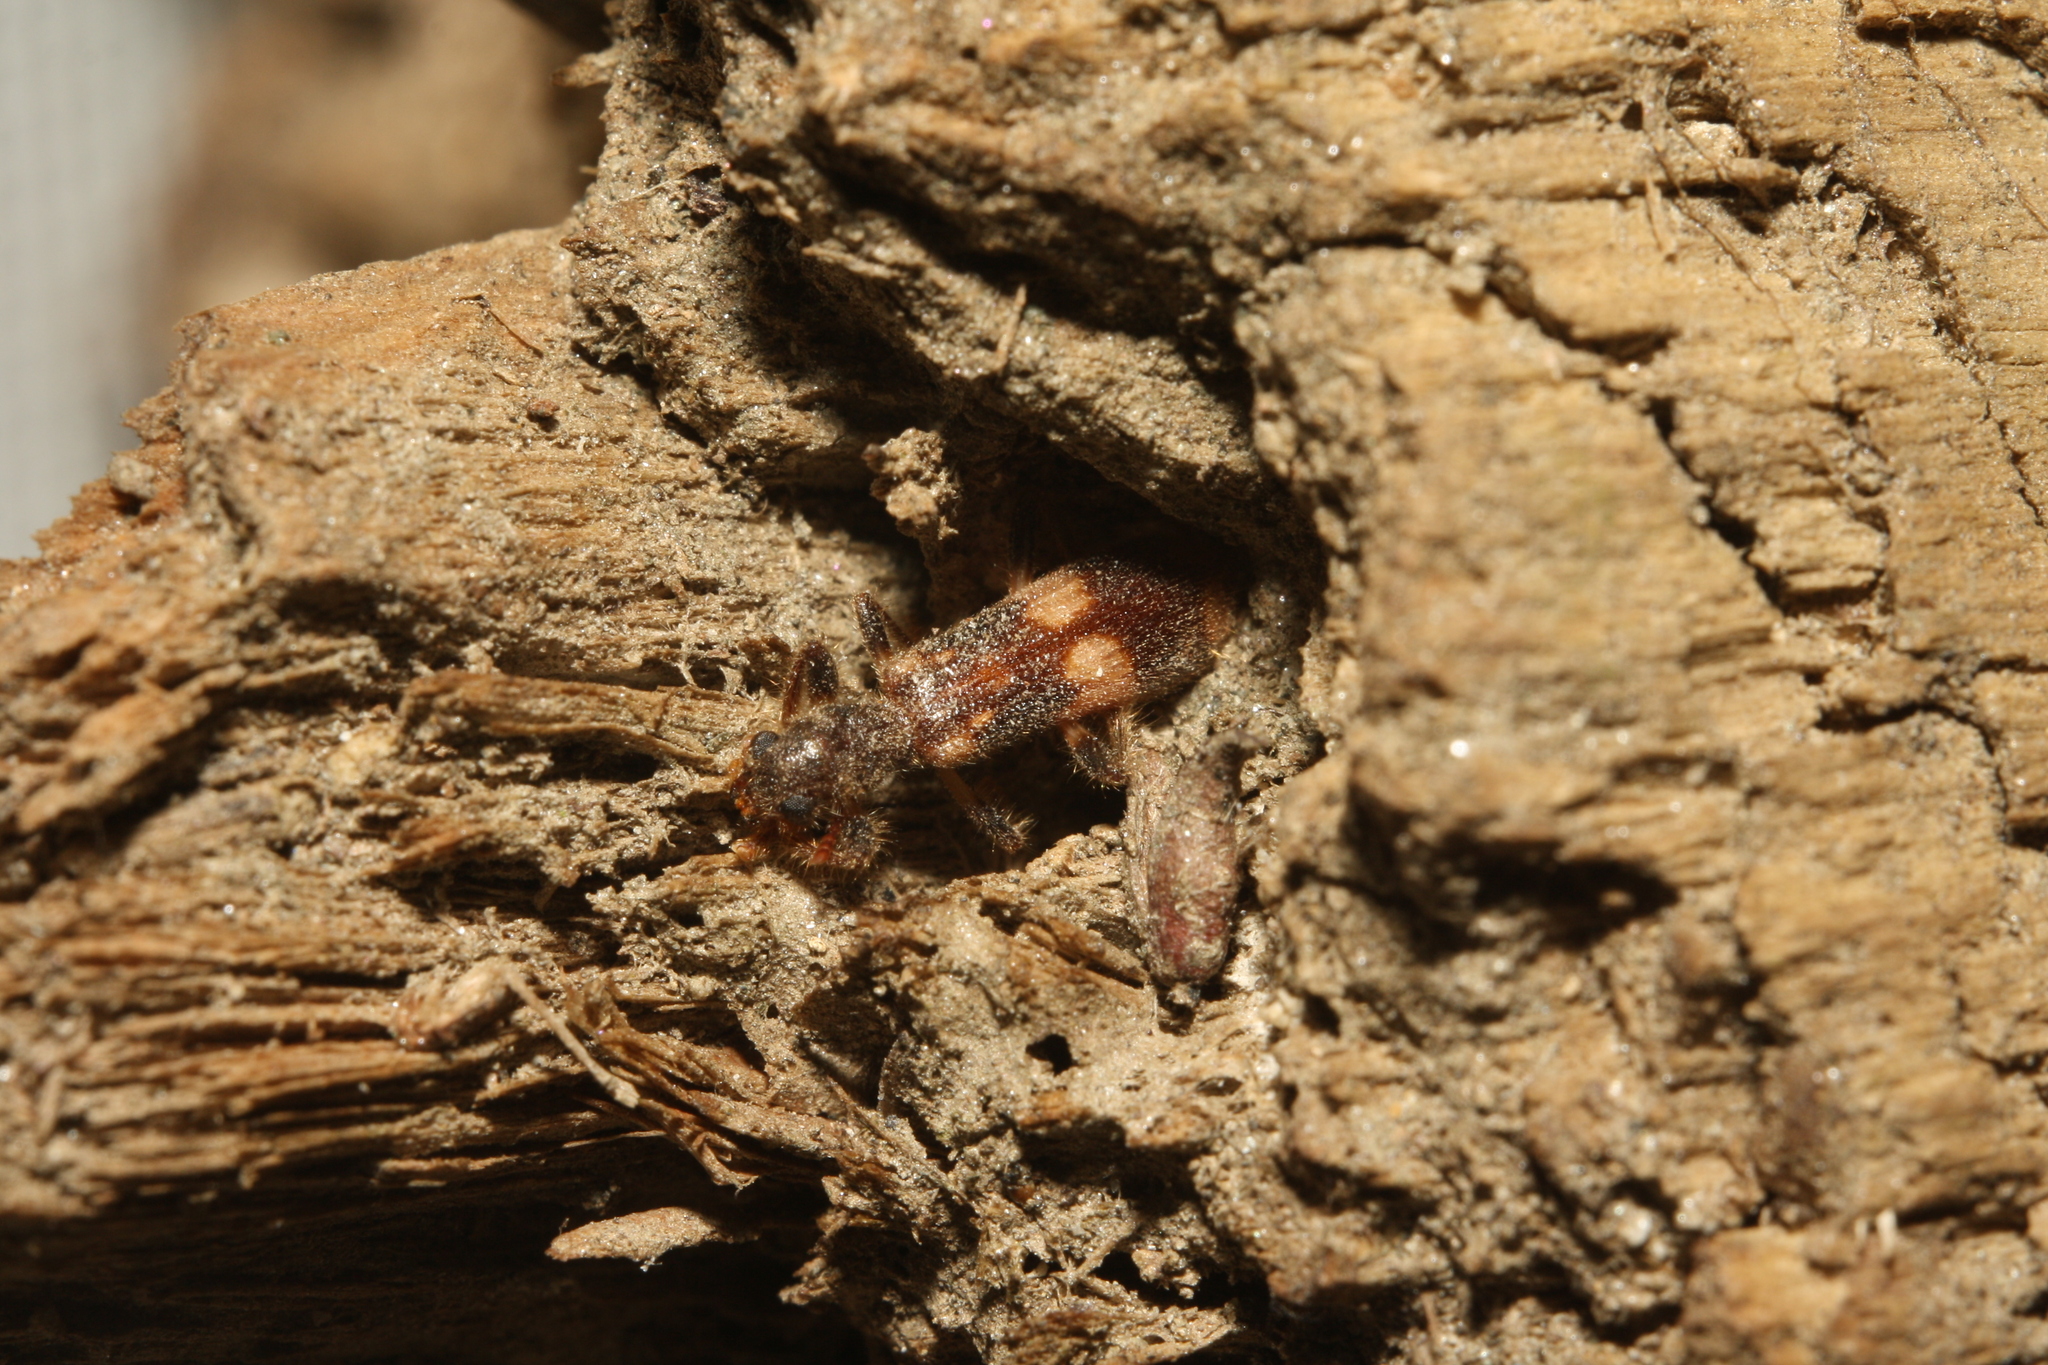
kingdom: Animalia
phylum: Arthropoda
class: Insecta
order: Coleoptera
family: Cleridae
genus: Opilo
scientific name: Opilo mollis
